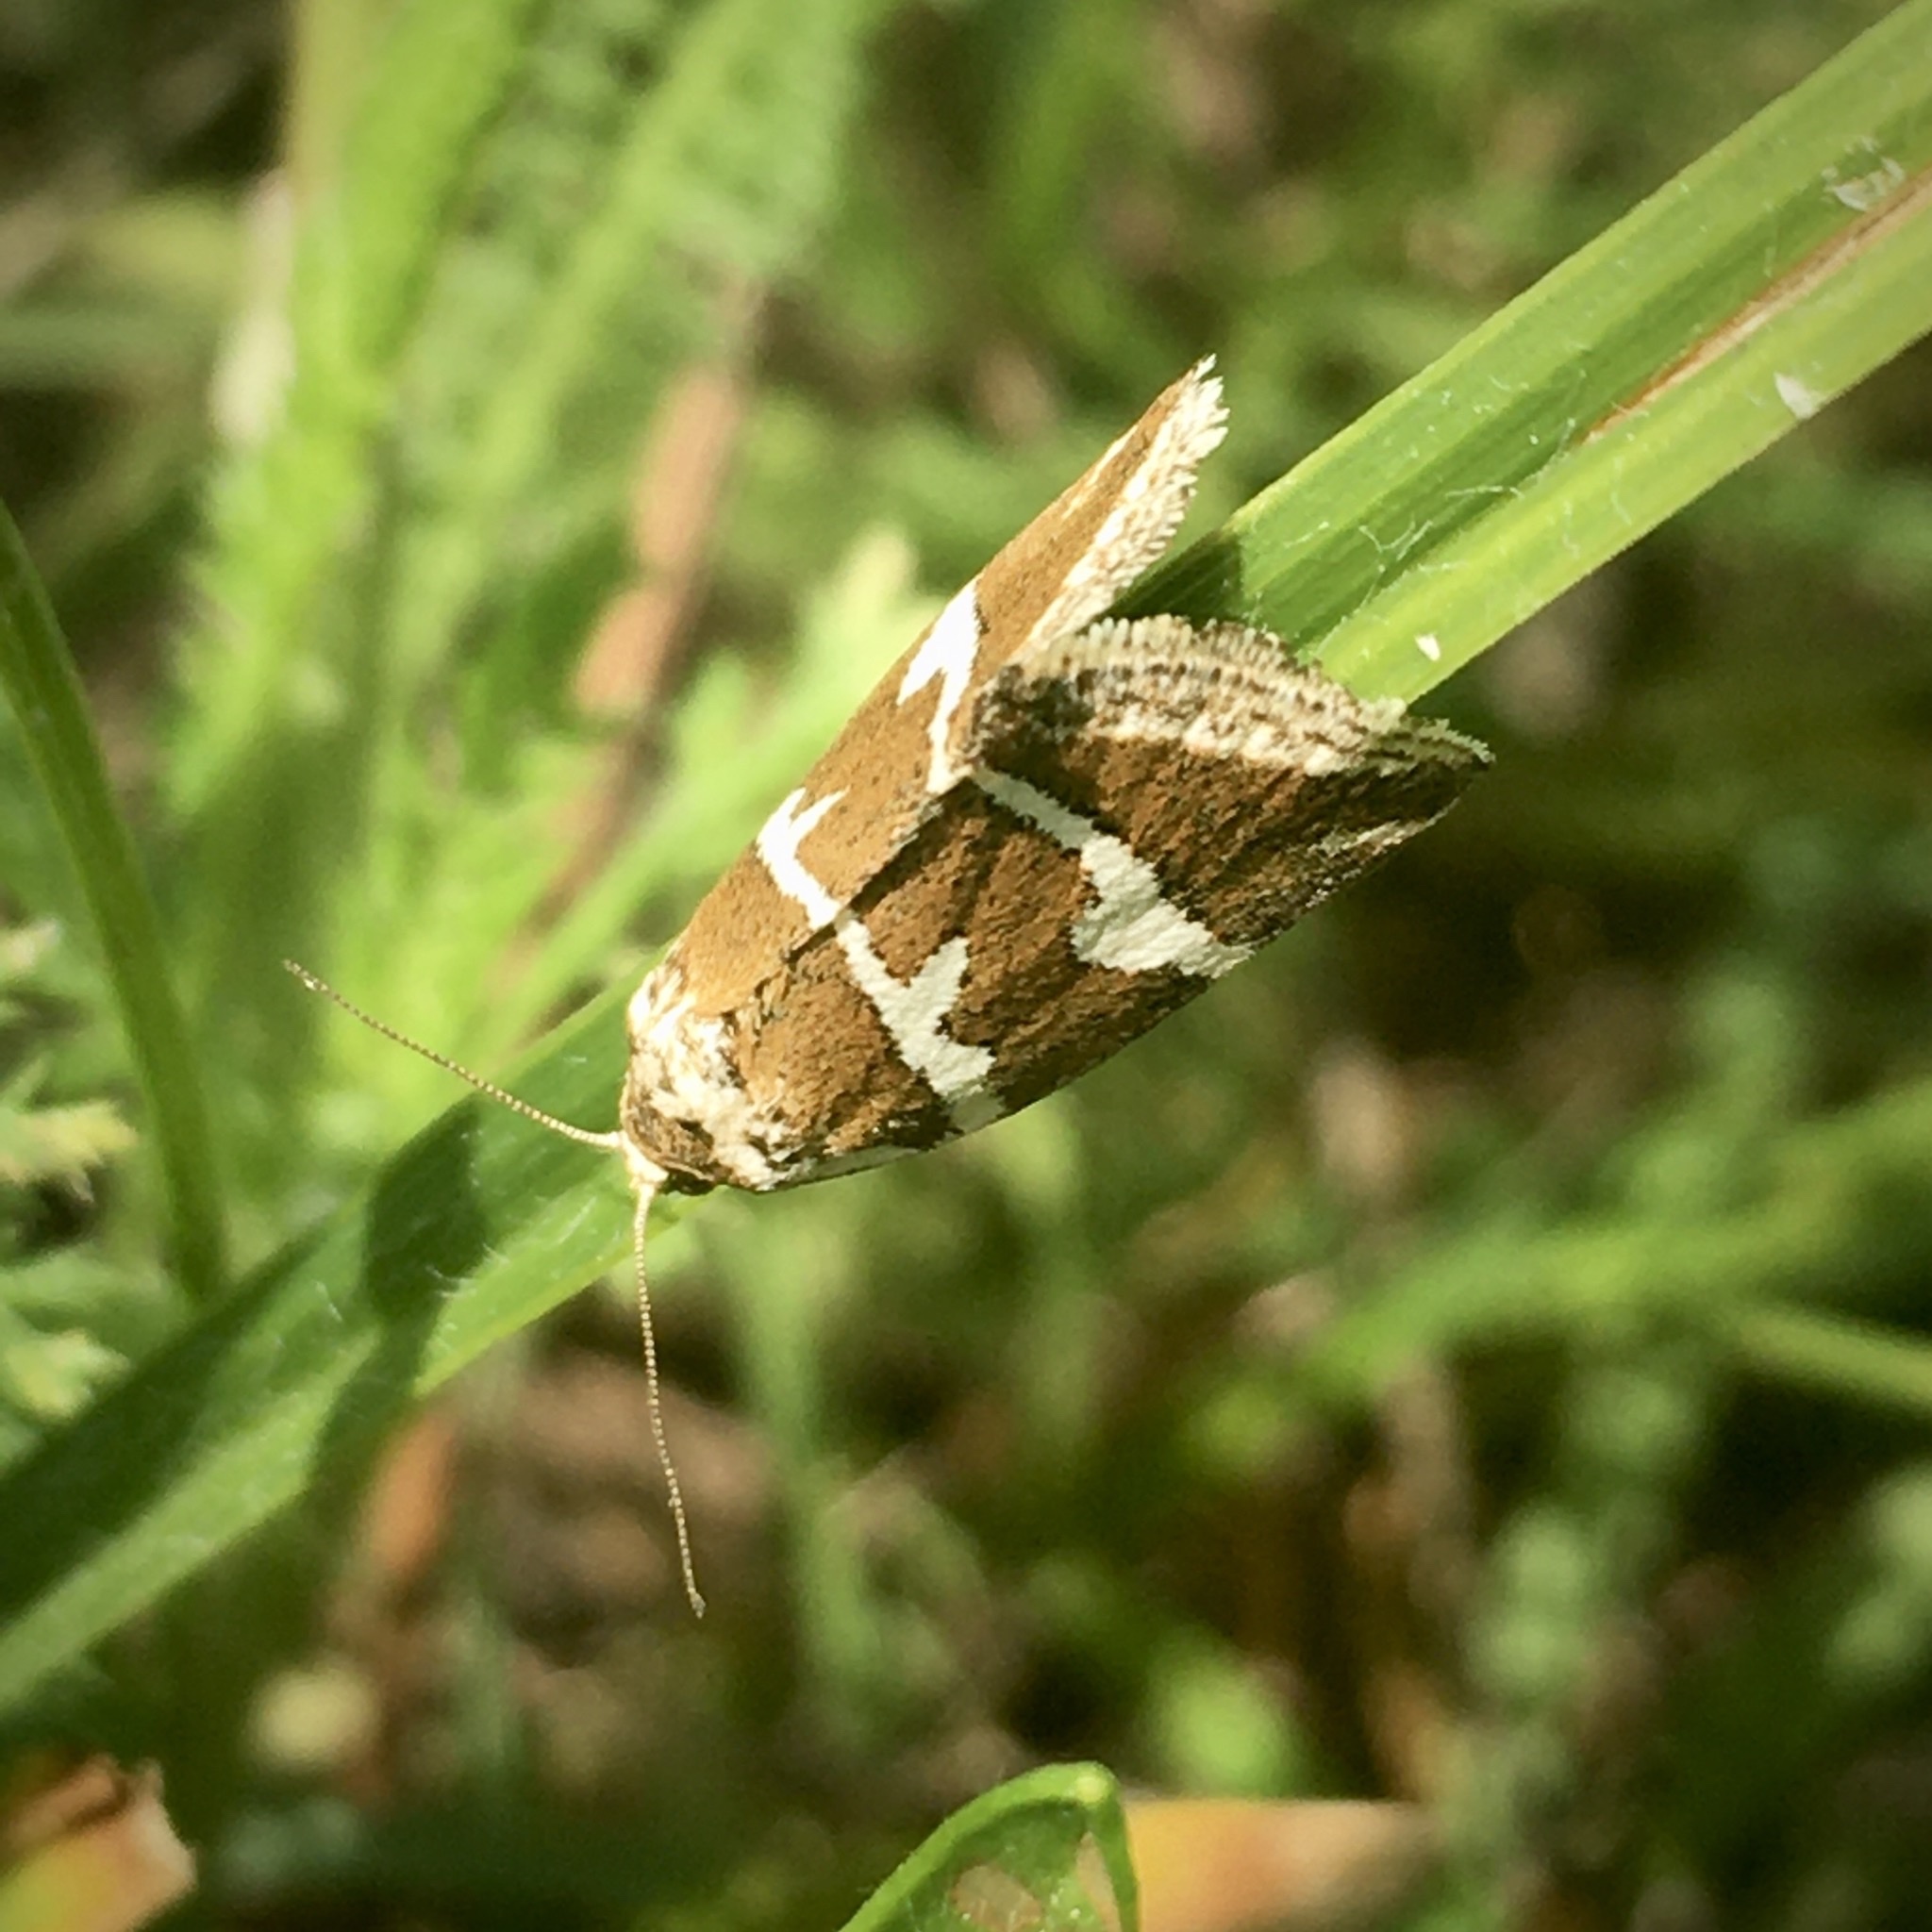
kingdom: Animalia
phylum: Arthropoda
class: Insecta
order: Lepidoptera
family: Noctuidae
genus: Deltote
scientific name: Deltote bankiana
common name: Silver barred
